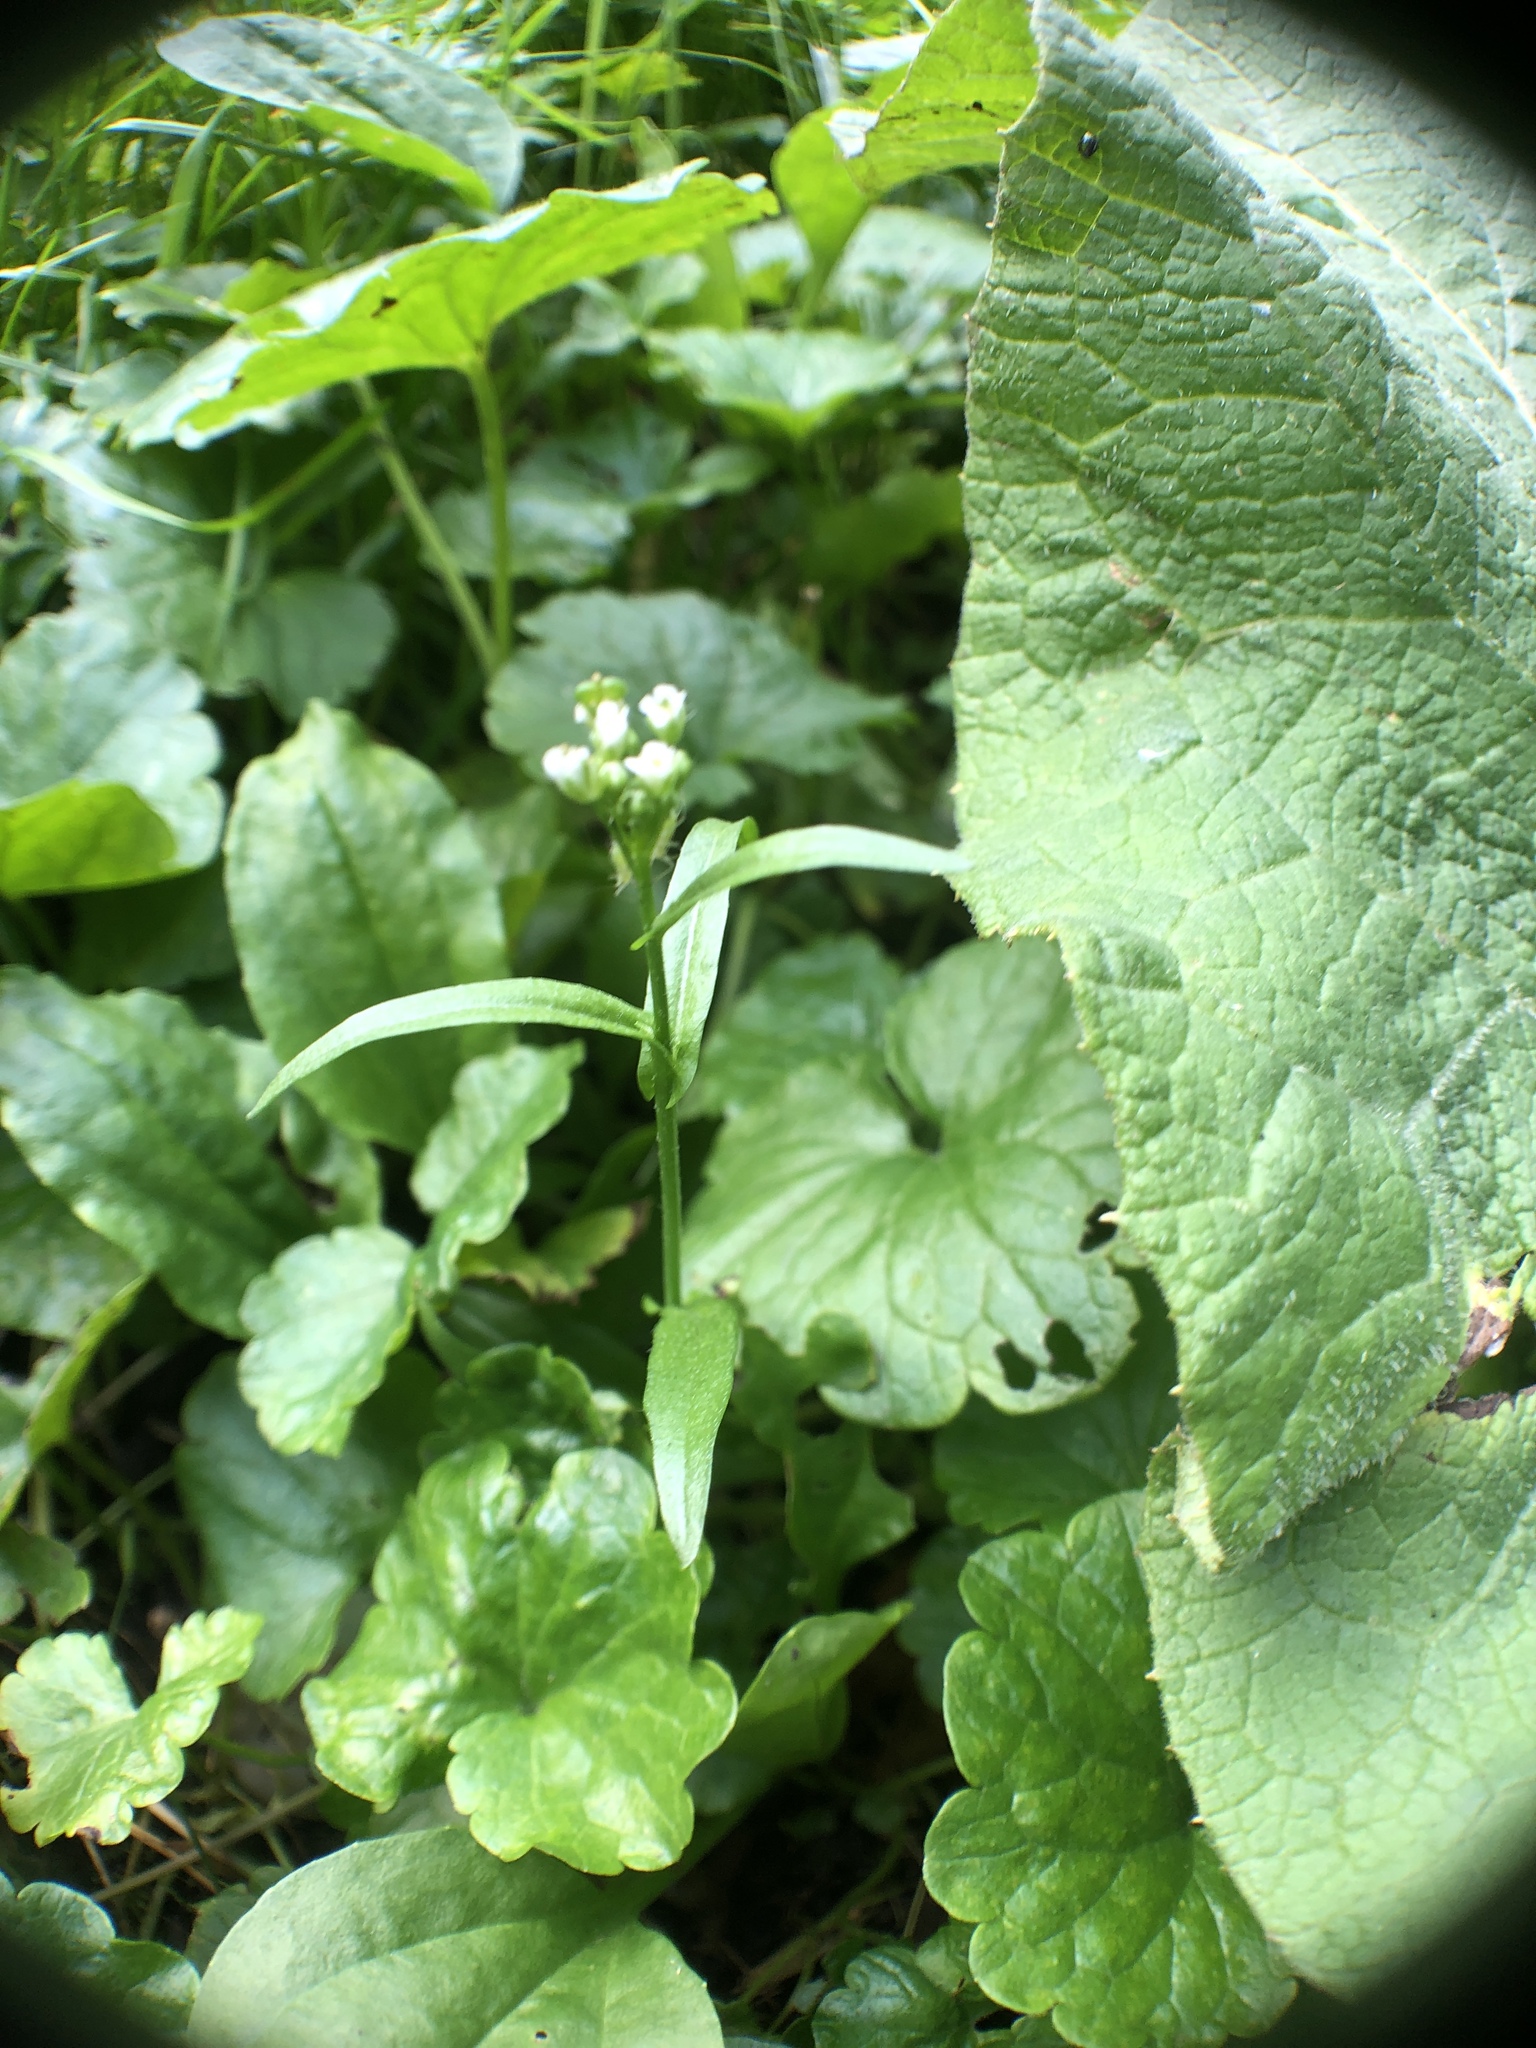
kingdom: Plantae
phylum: Tracheophyta
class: Magnoliopsida
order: Brassicales
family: Brassicaceae
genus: Capsella
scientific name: Capsella bursa-pastoris
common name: Shepherd's purse
